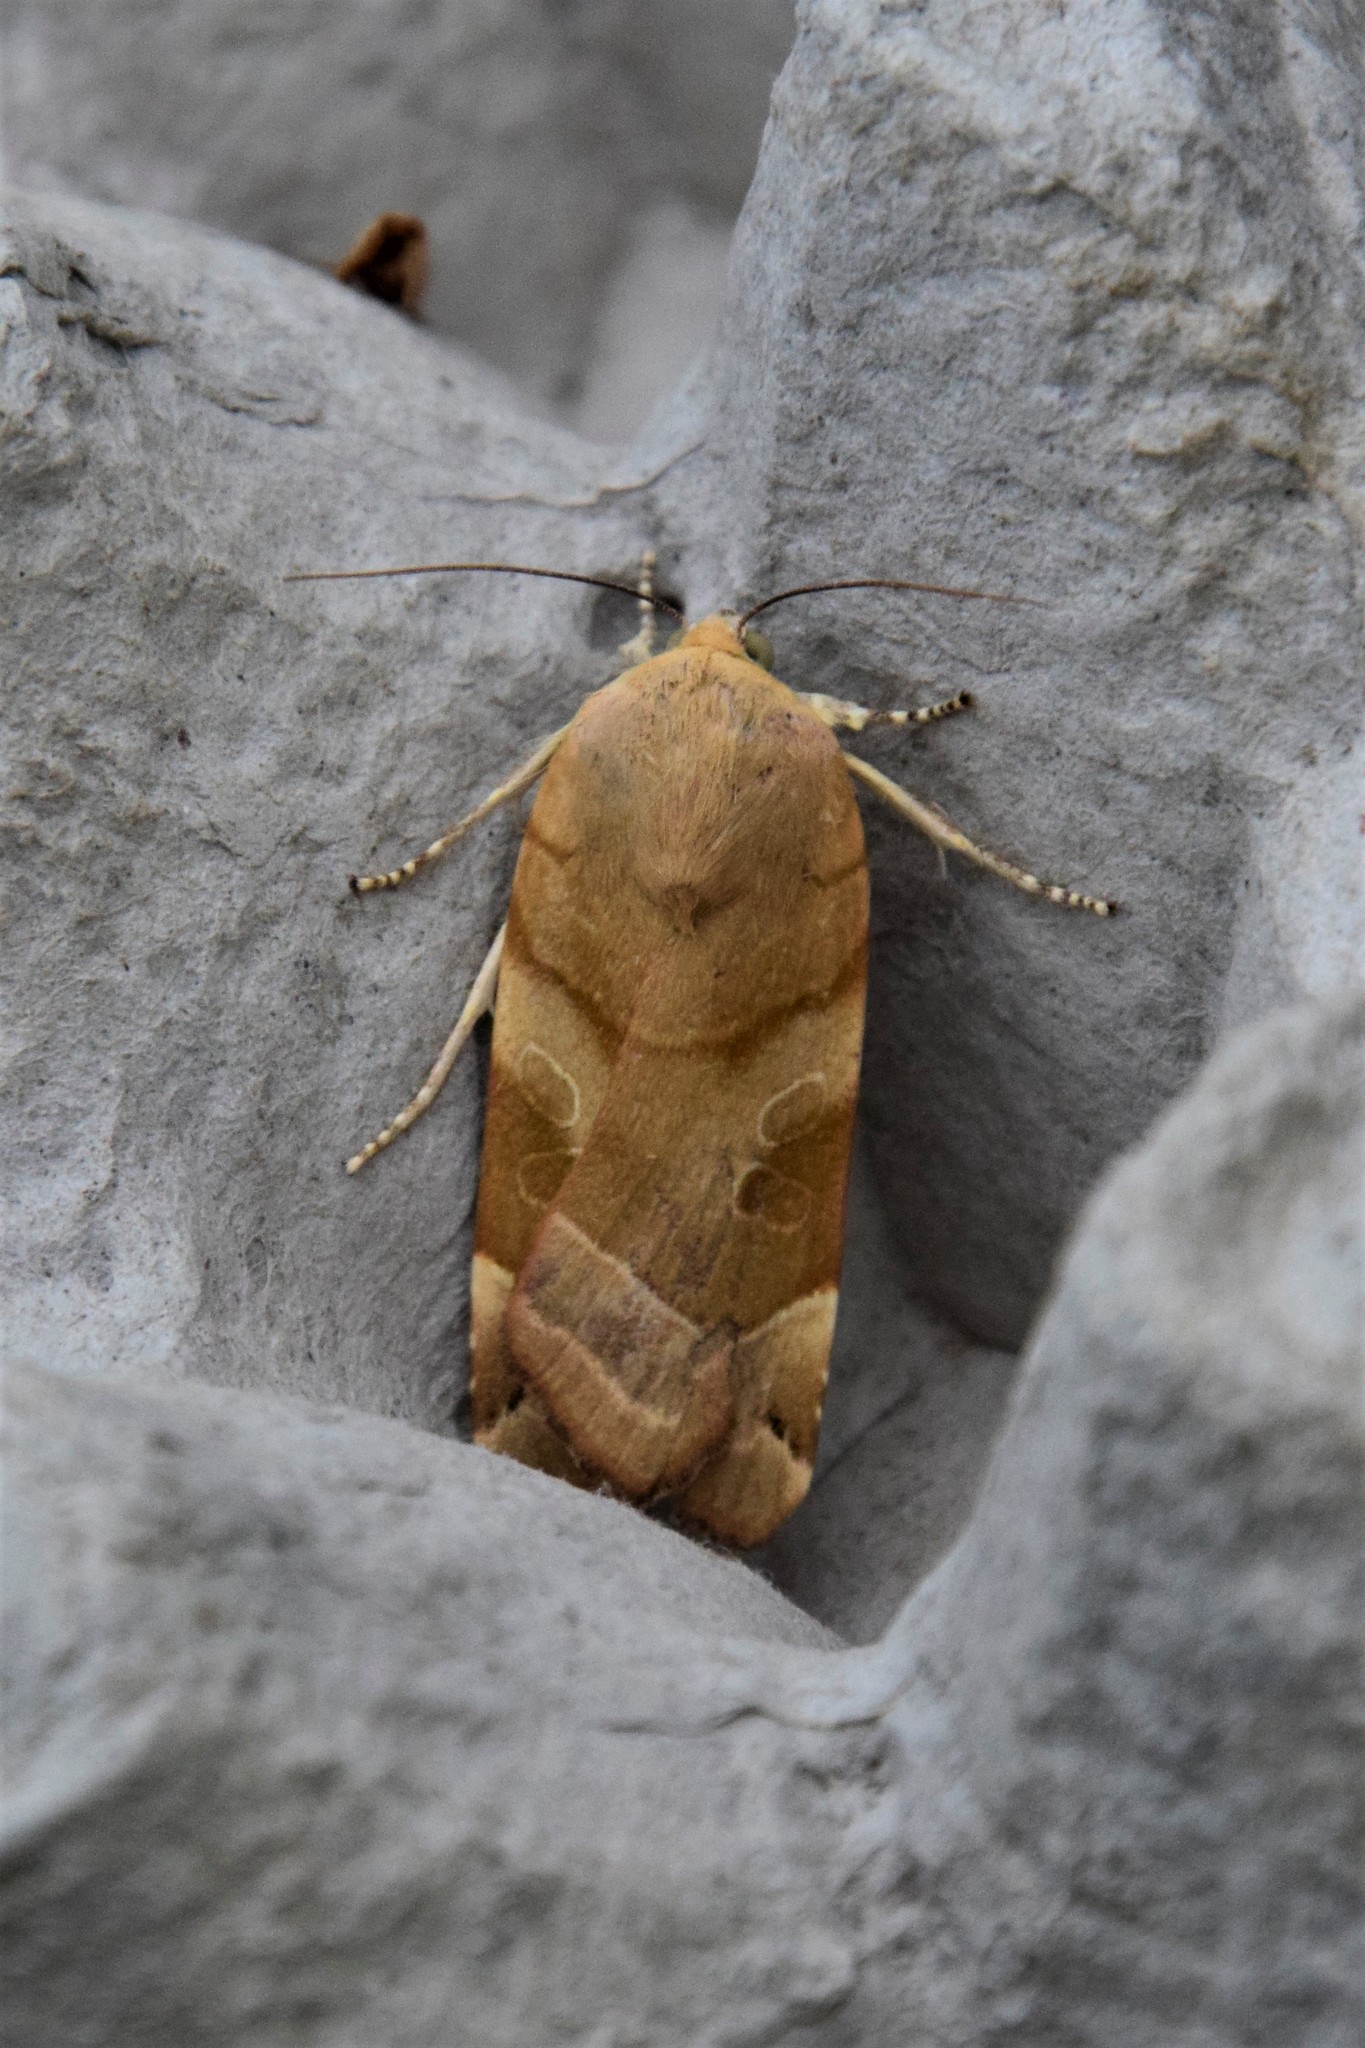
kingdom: Animalia
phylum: Arthropoda
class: Insecta
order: Lepidoptera
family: Noctuidae
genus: Noctua
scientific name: Noctua fimbriata
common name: Broad-bordered yellow underwing
